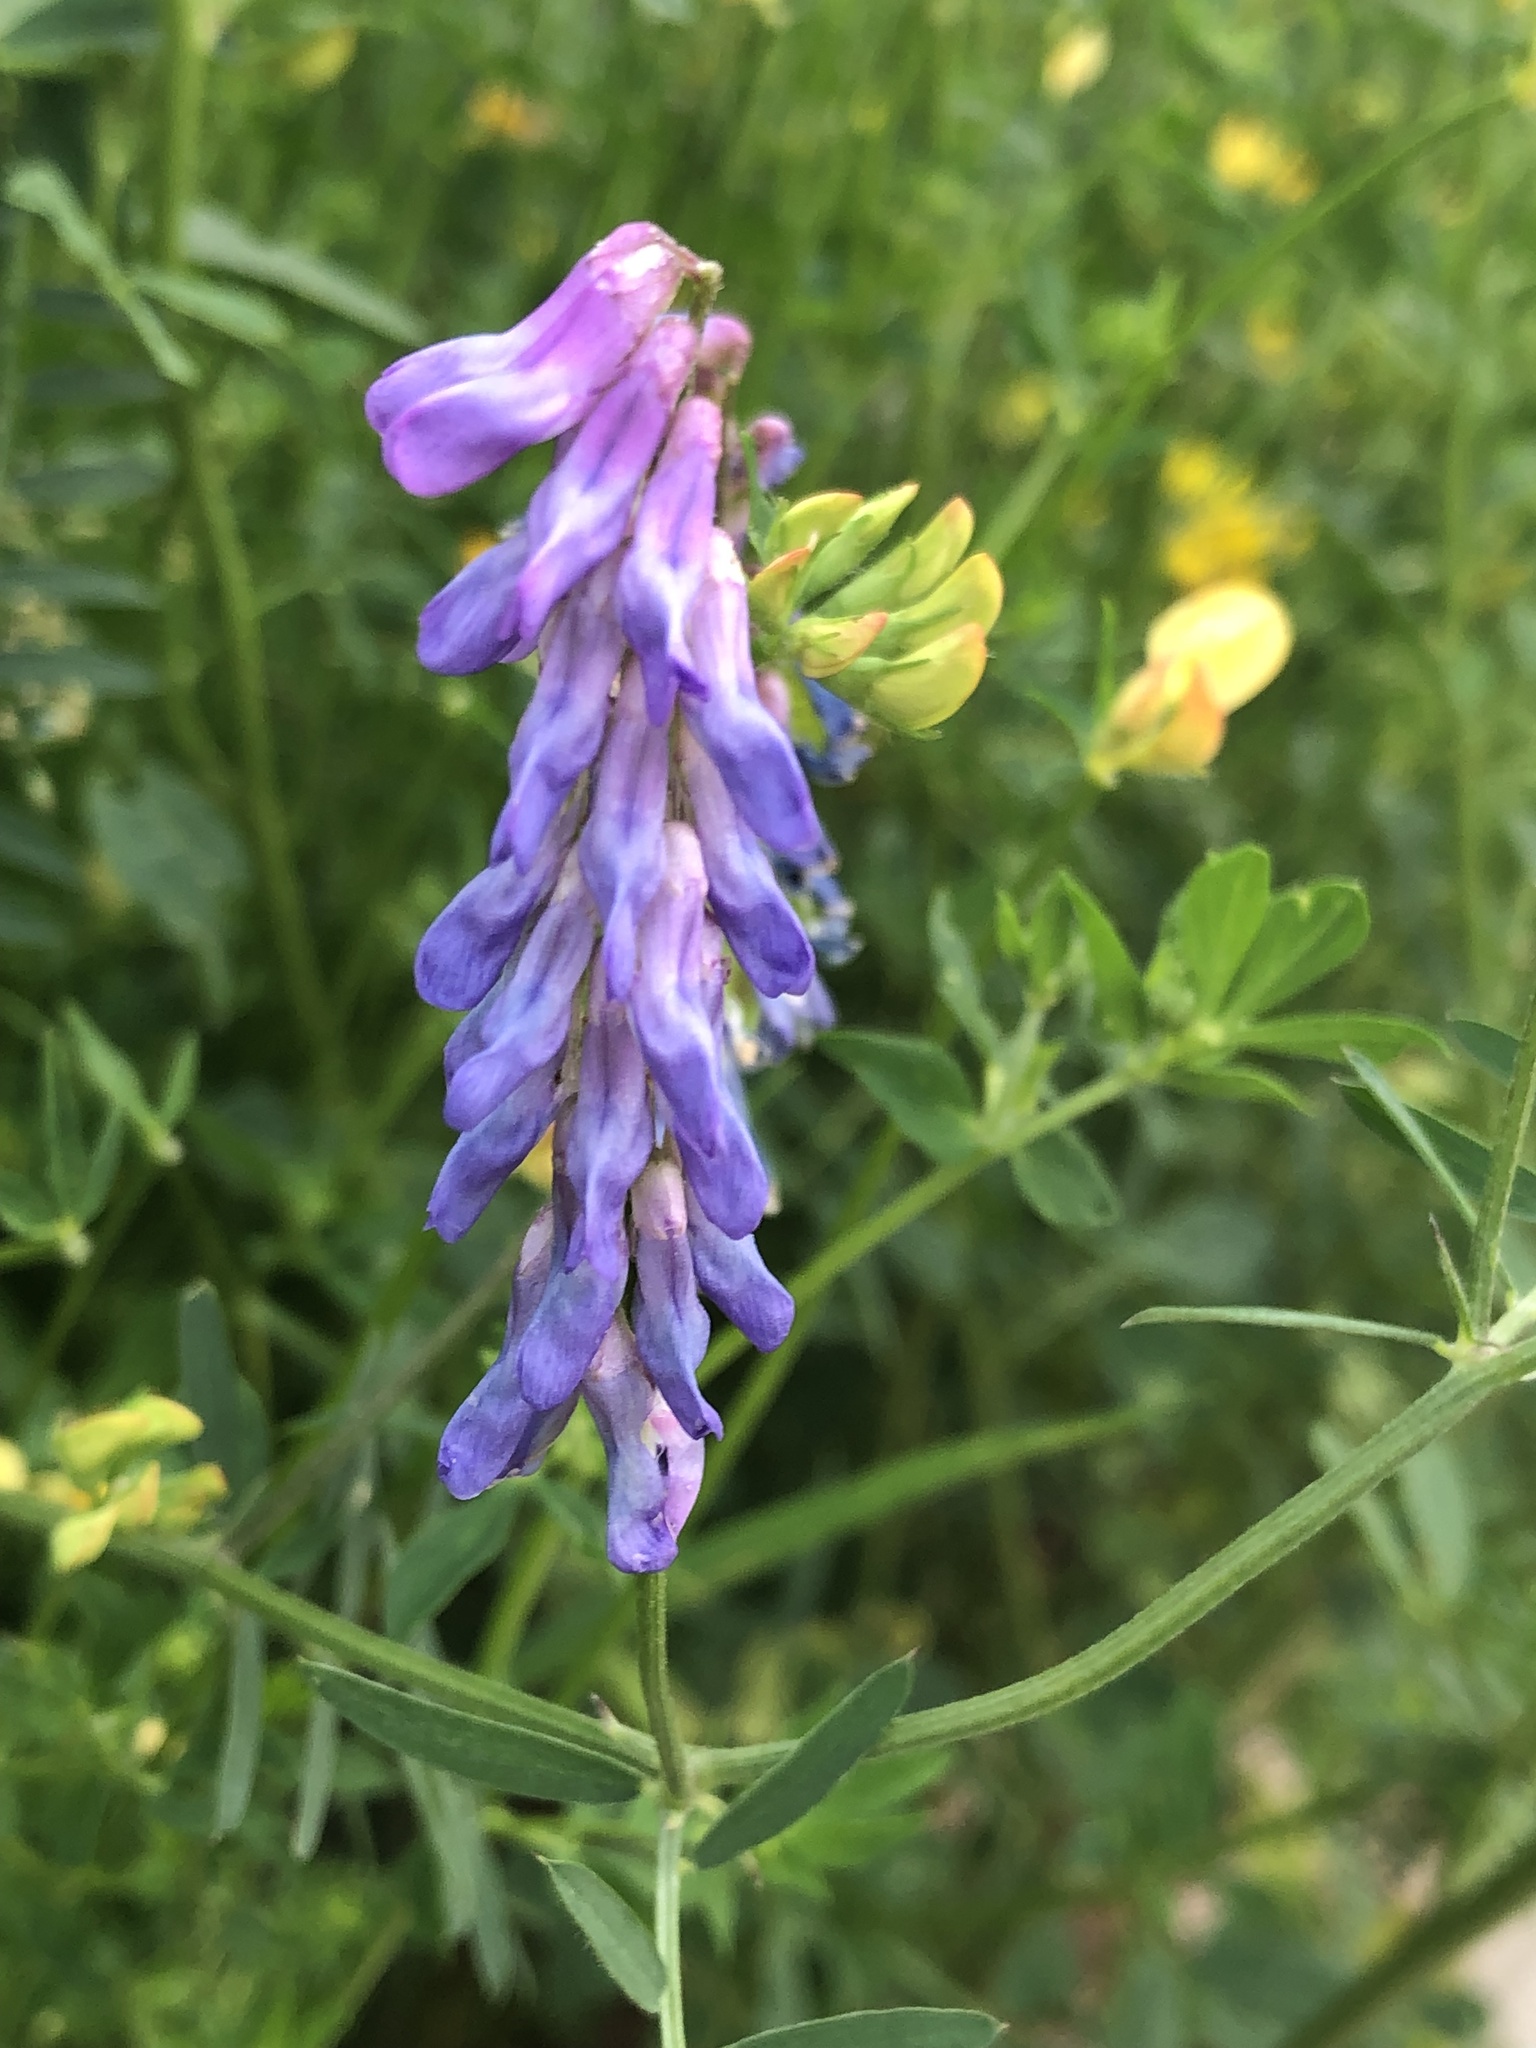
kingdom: Plantae
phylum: Tracheophyta
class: Magnoliopsida
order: Fabales
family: Fabaceae
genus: Vicia
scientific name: Vicia cracca
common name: Bird vetch
